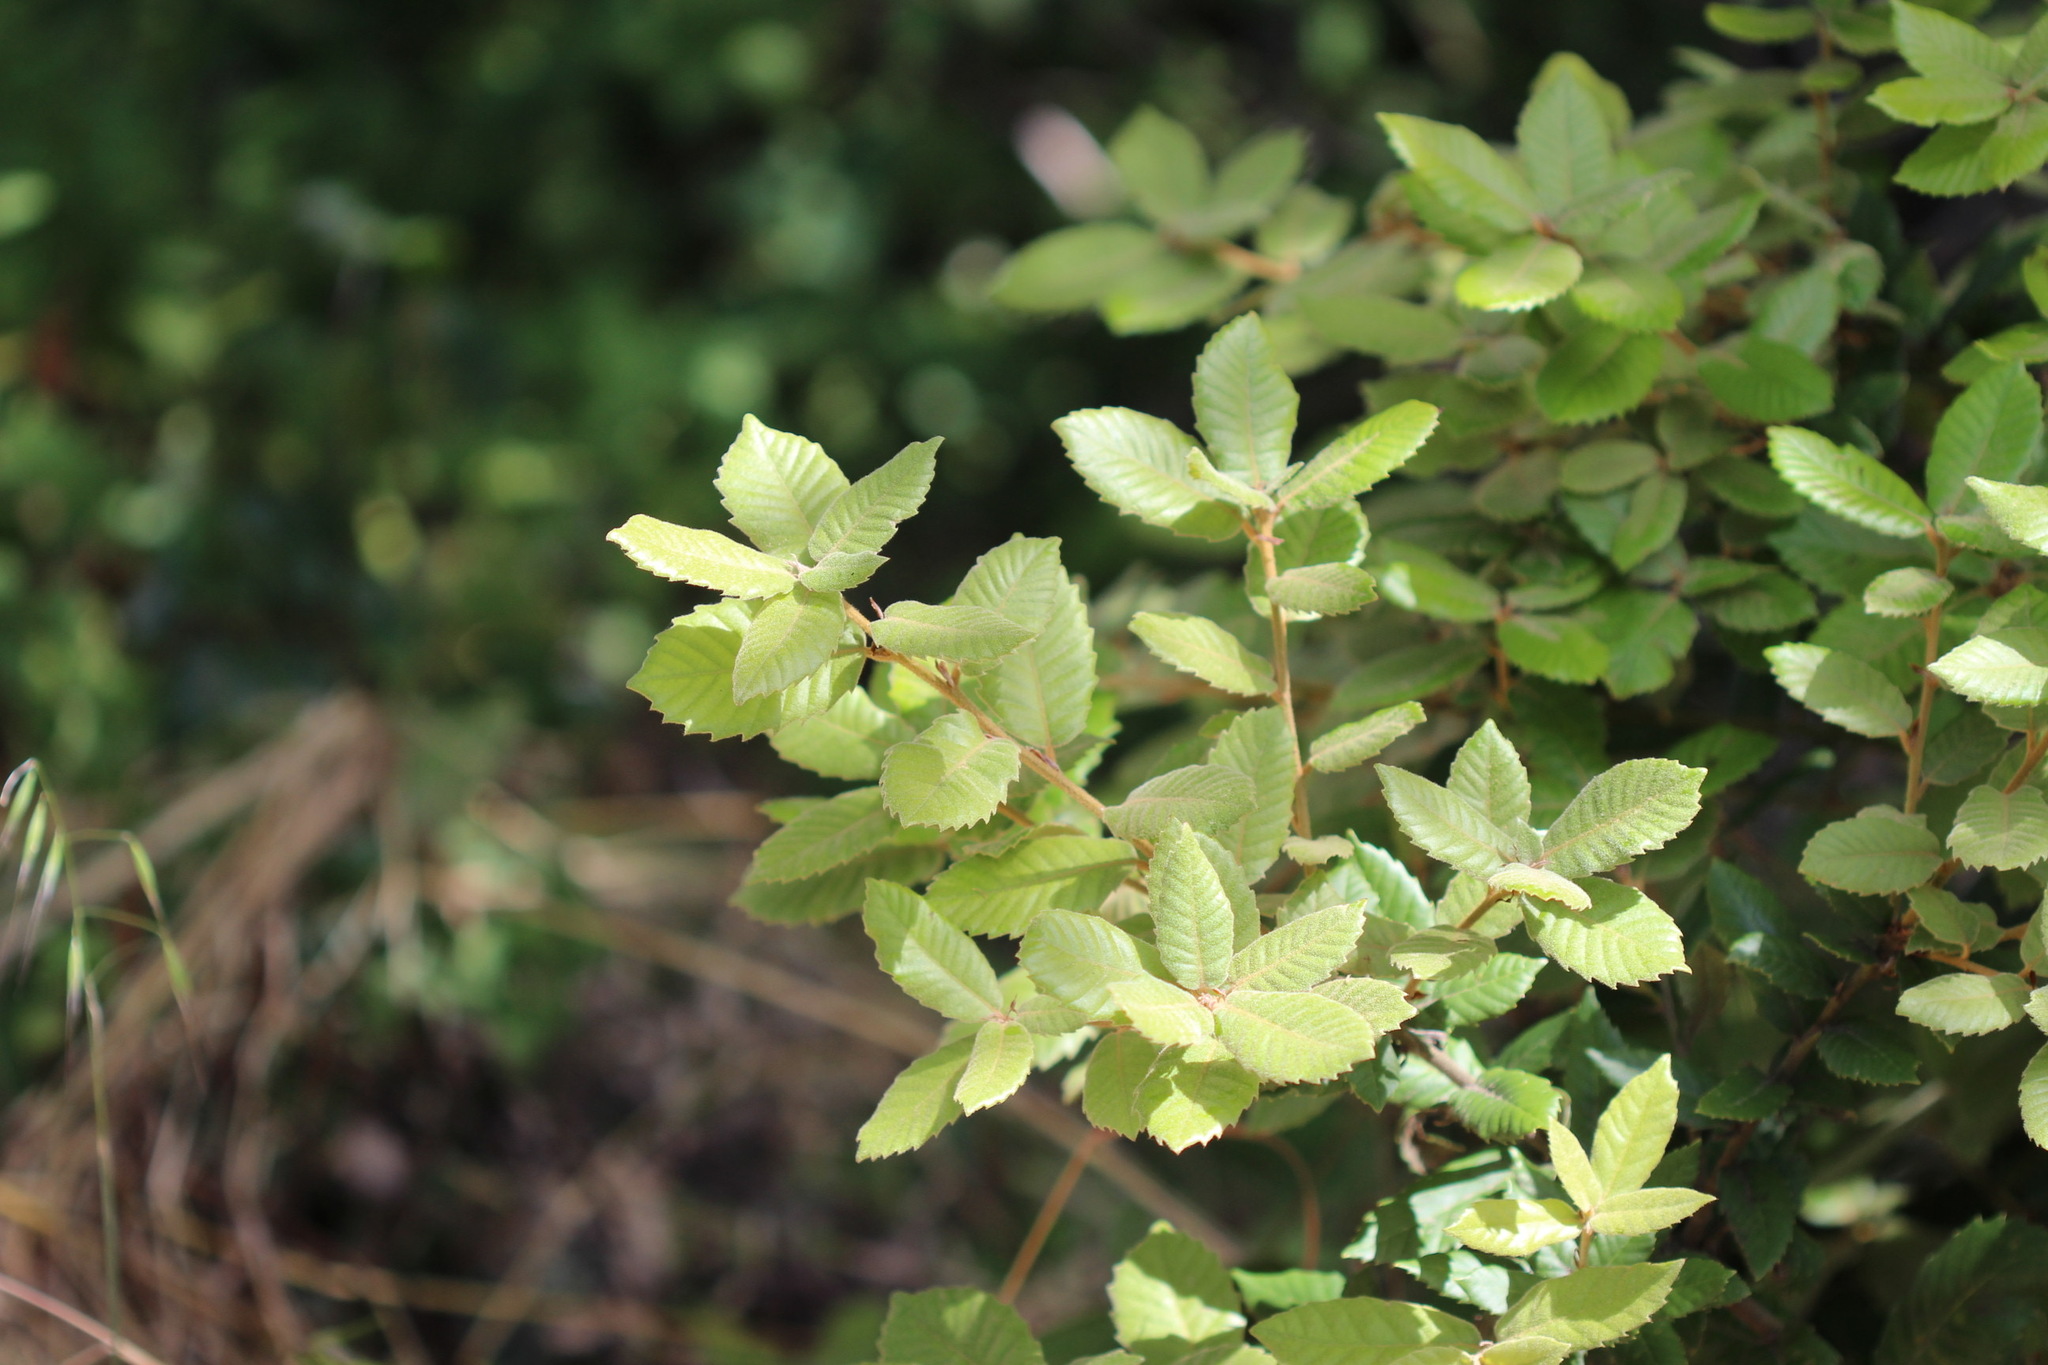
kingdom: Plantae
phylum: Tracheophyta
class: Magnoliopsida
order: Fagales
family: Fagaceae
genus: Notholithocarpus
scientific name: Notholithocarpus densiflorus
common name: Tan bark oak
